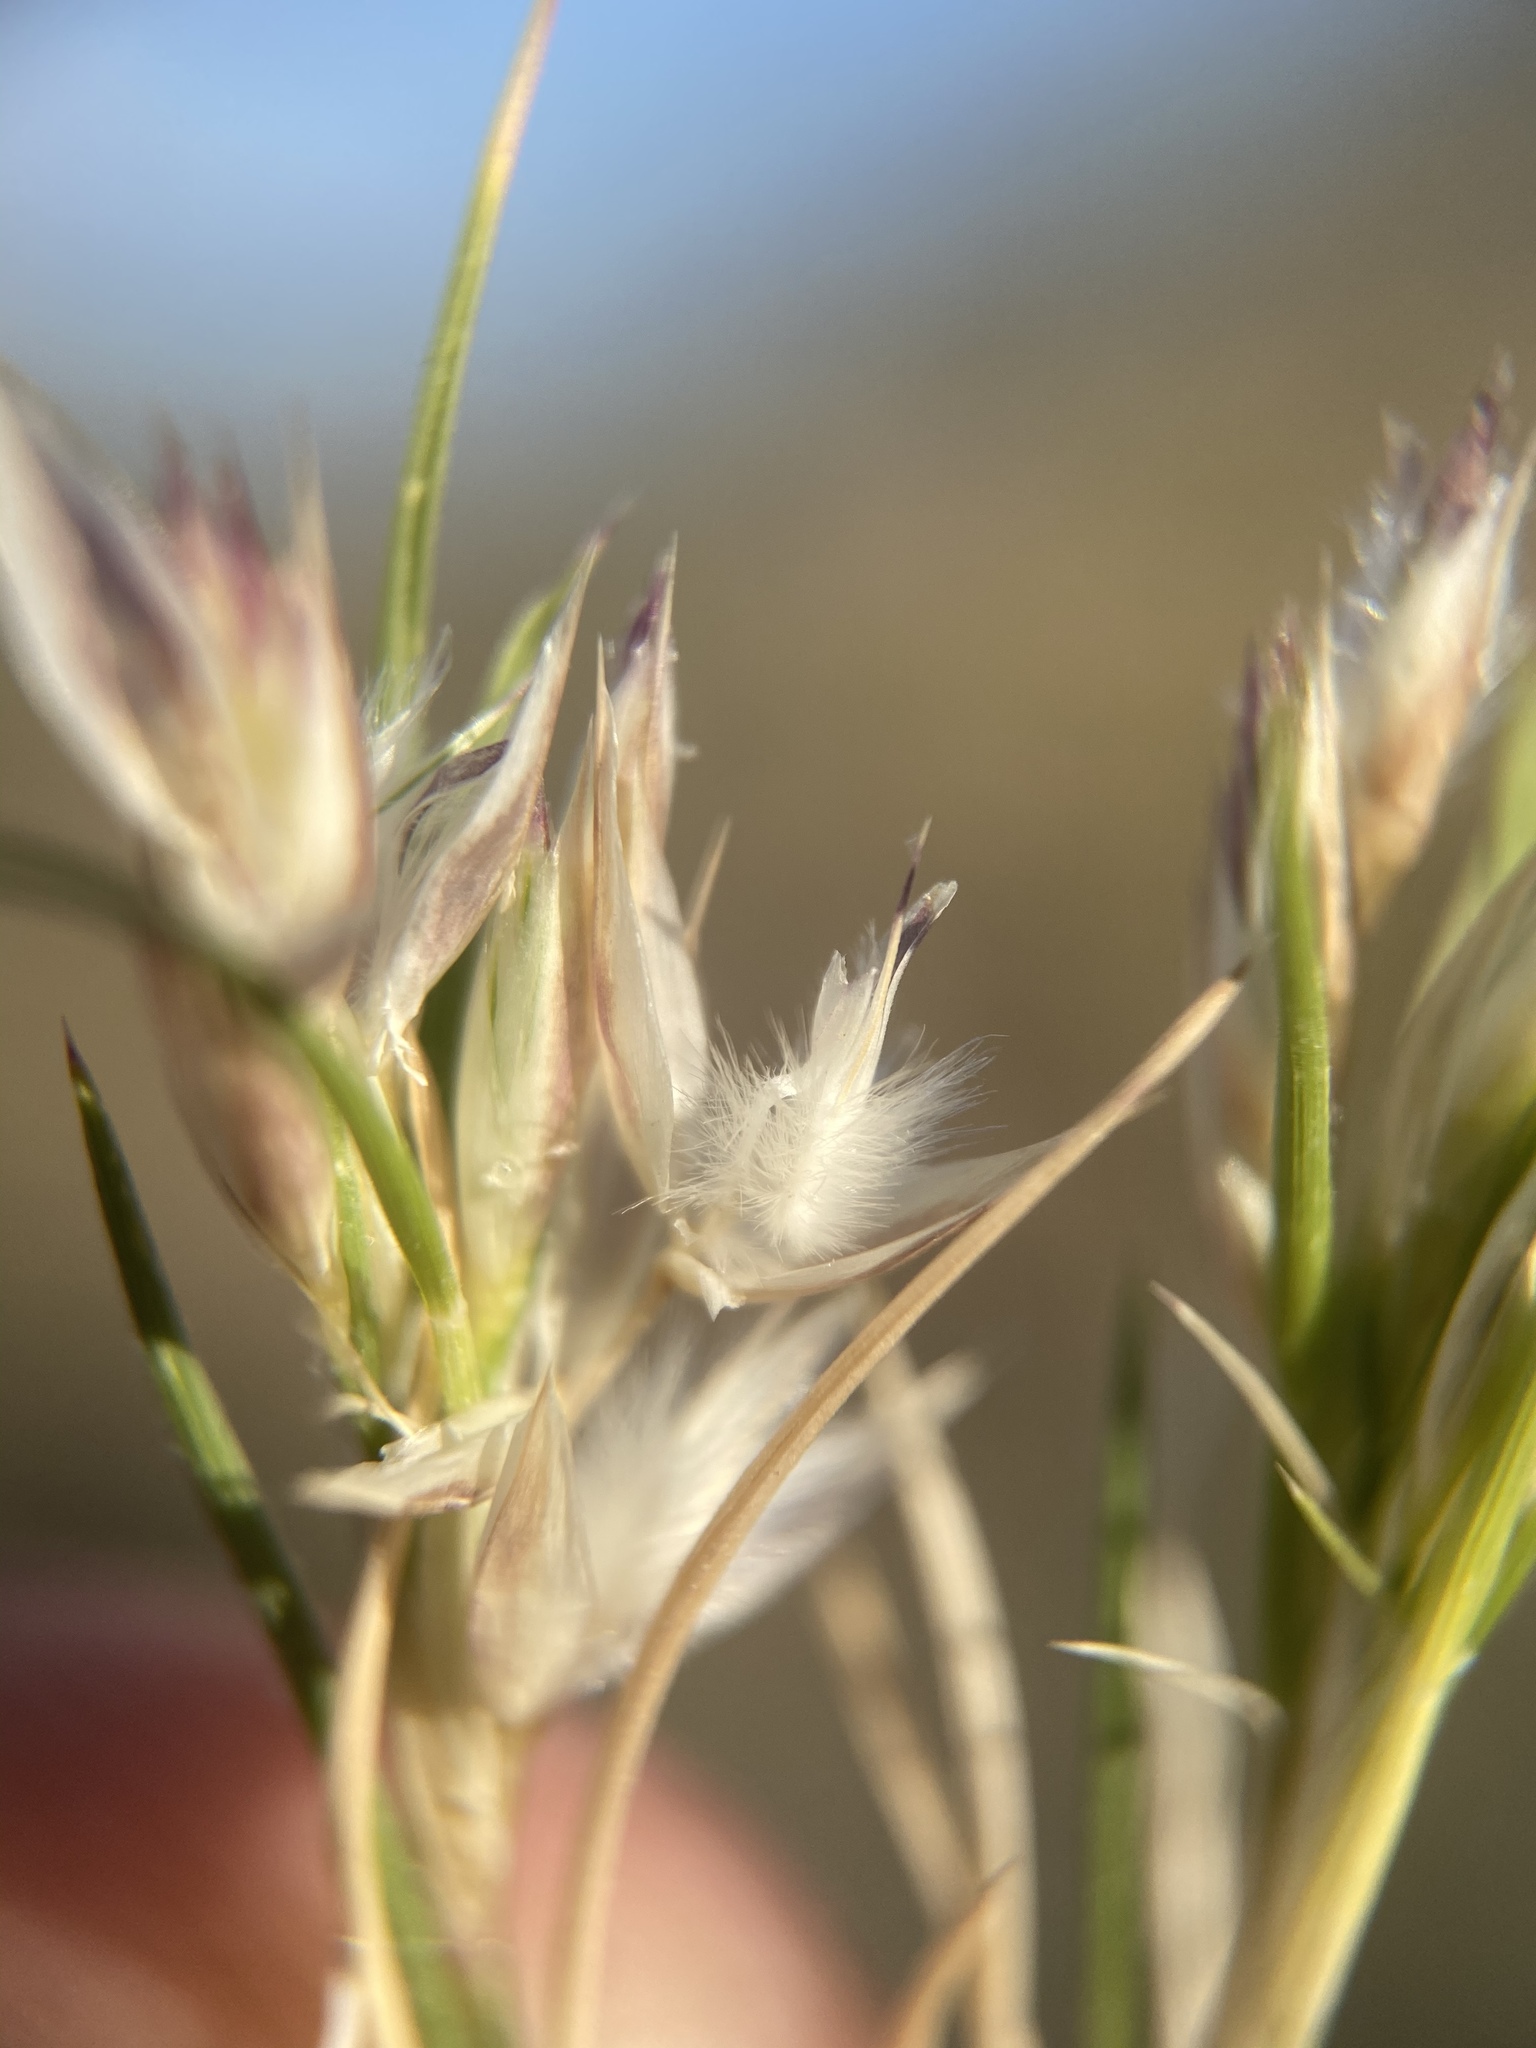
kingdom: Plantae
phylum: Tracheophyta
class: Liliopsida
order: Poales
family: Poaceae
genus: Dasyochloa
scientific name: Dasyochloa pulchella
